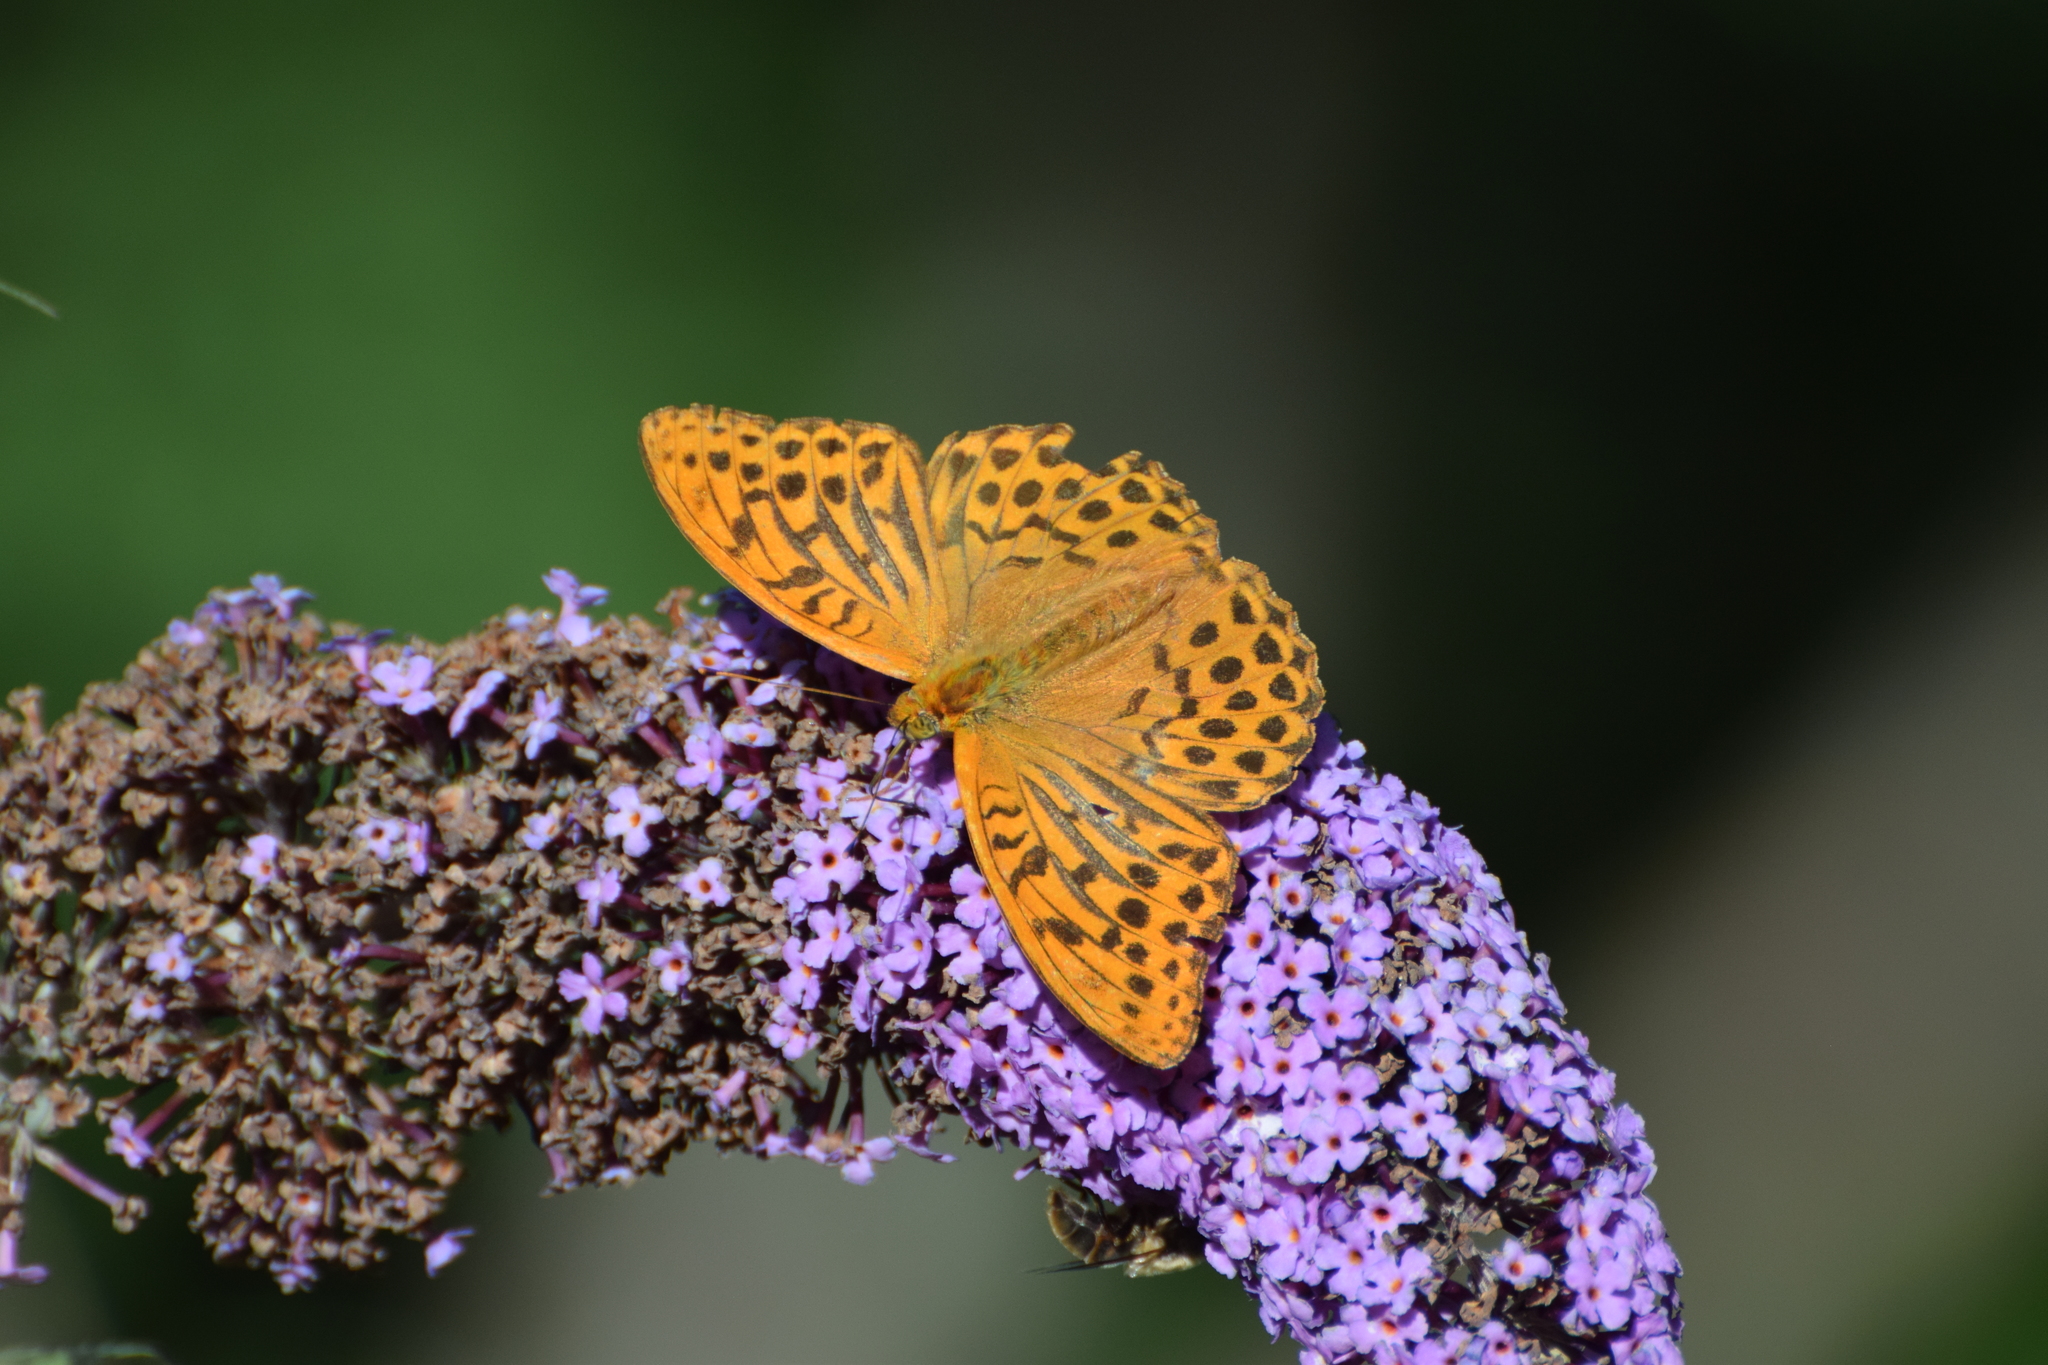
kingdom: Animalia
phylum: Arthropoda
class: Insecta
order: Lepidoptera
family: Nymphalidae
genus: Argynnis
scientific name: Argynnis paphia
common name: Silver-washed fritillary
